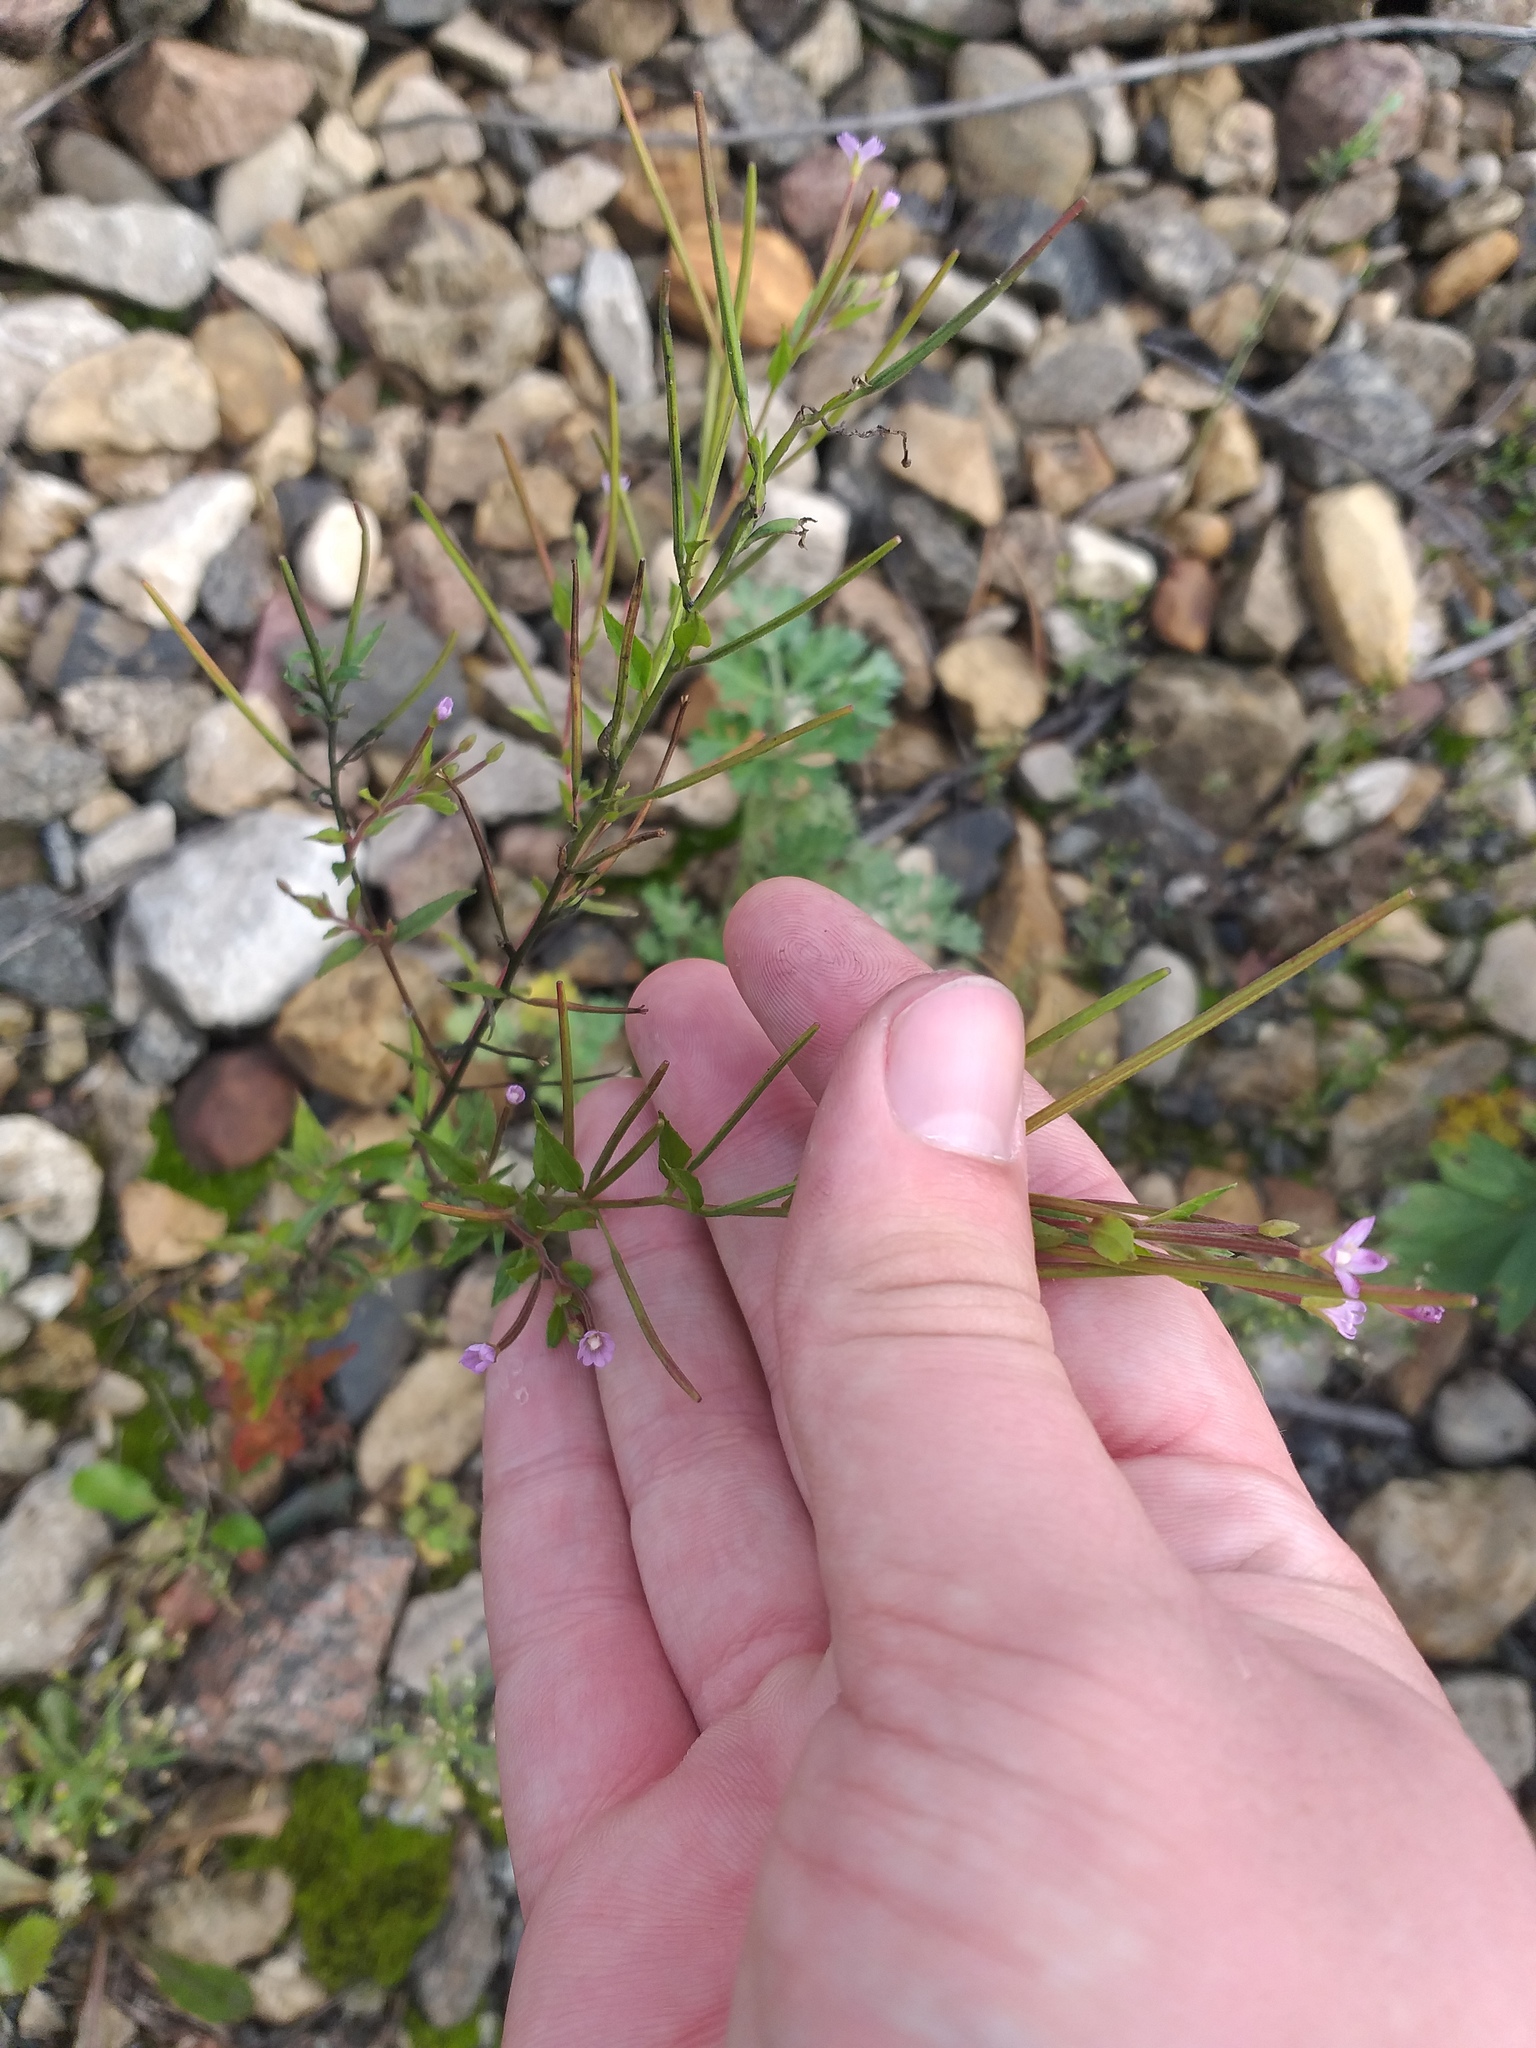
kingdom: Plantae
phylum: Tracheophyta
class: Magnoliopsida
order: Myrtales
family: Onagraceae
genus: Epilobium
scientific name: Epilobium ciliatum
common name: American willowherb
